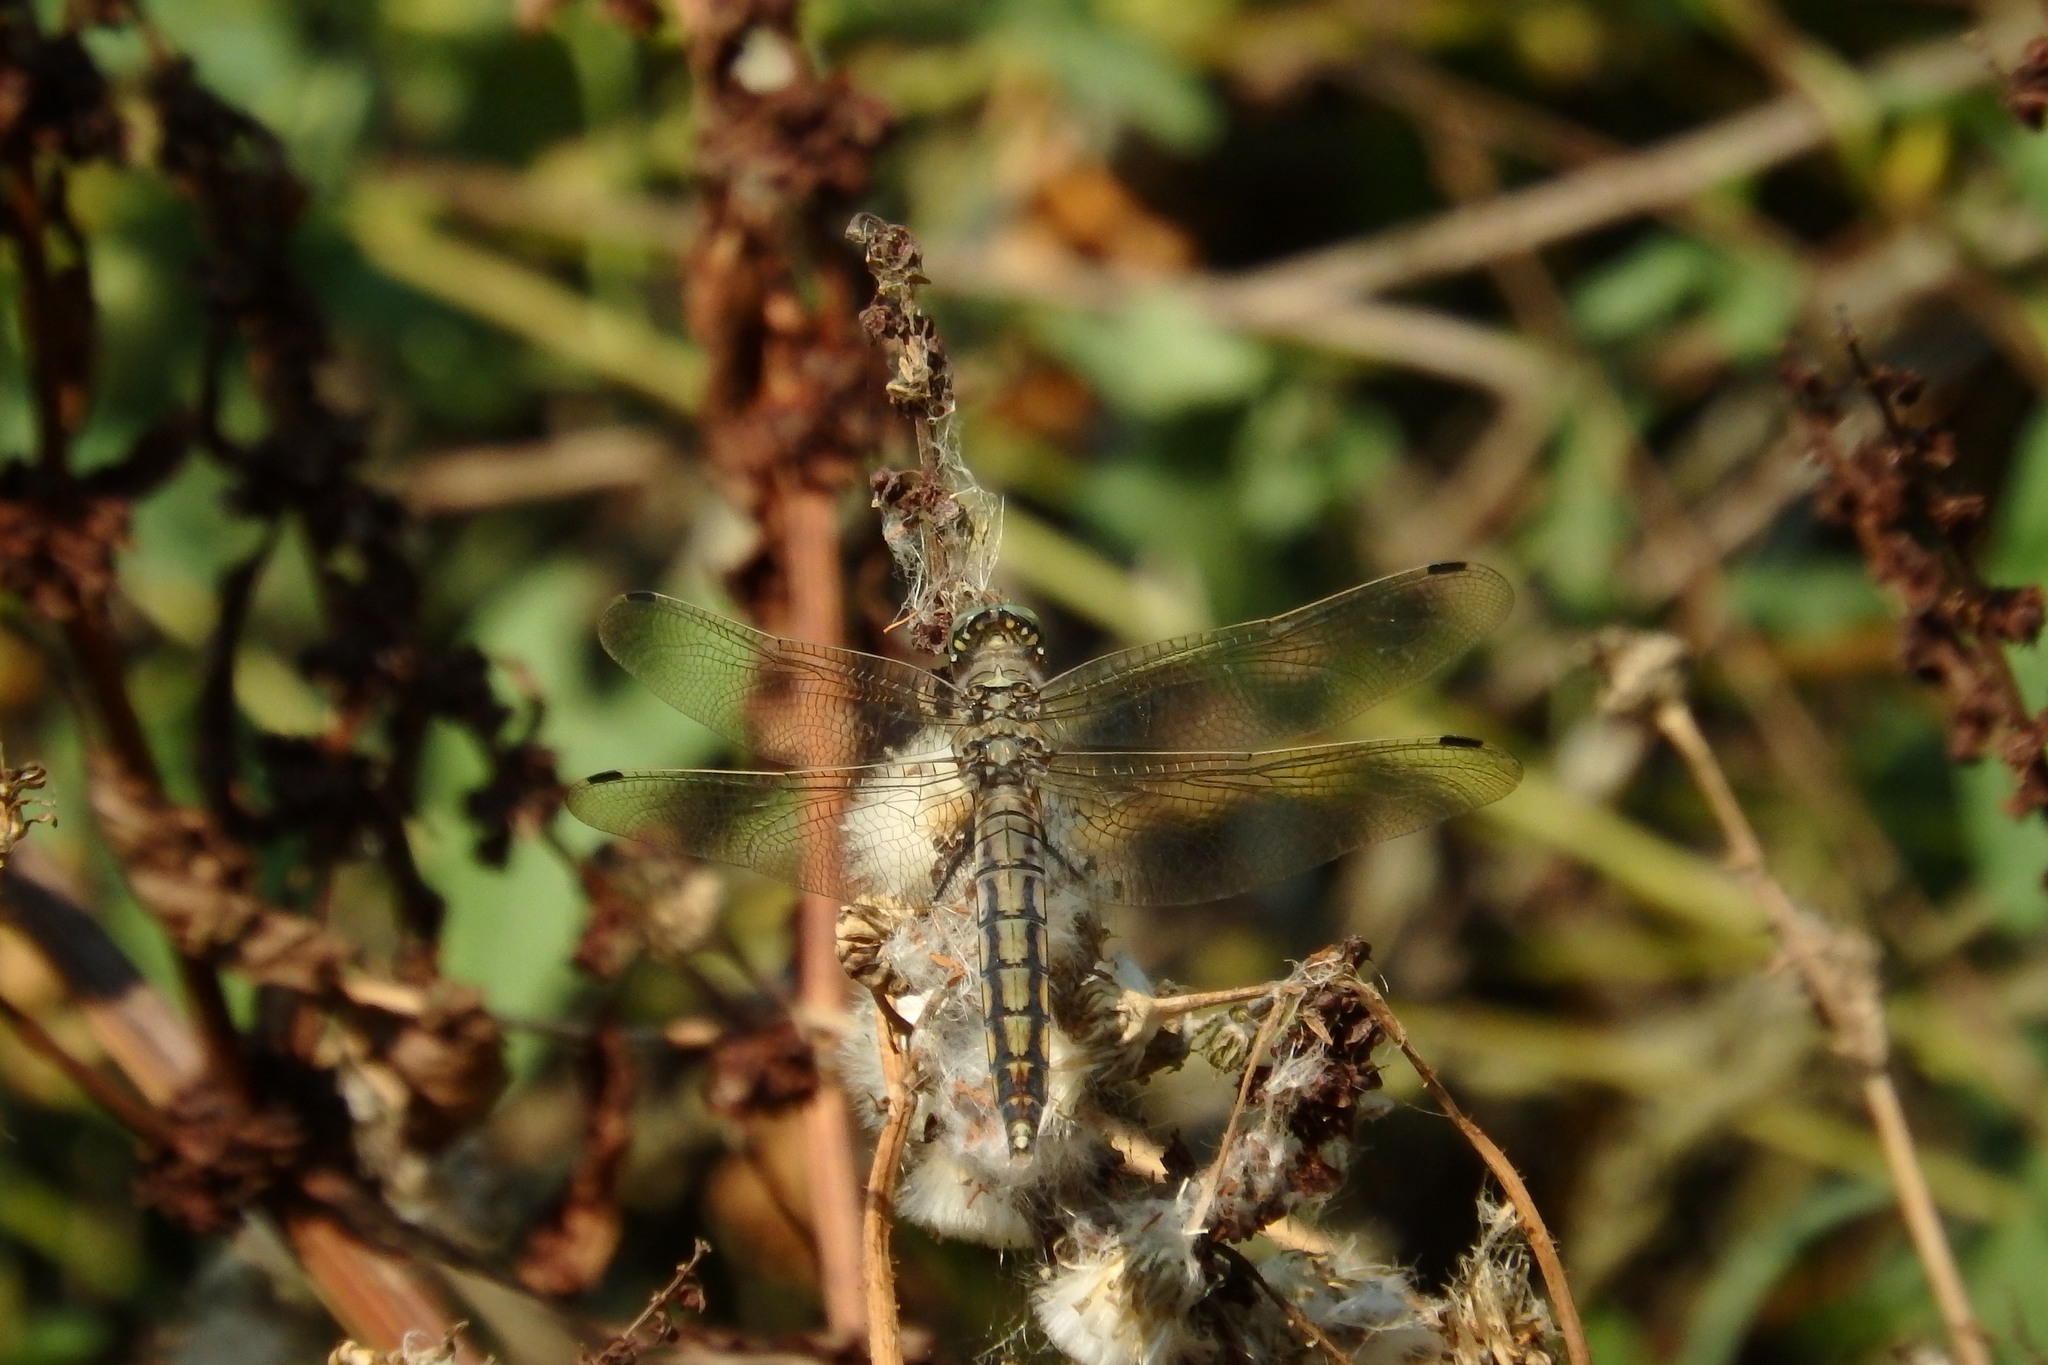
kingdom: Animalia
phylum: Arthropoda
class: Insecta
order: Odonata
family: Libellulidae
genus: Orthetrum
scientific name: Orthetrum cancellatum
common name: Black-tailed skimmer
